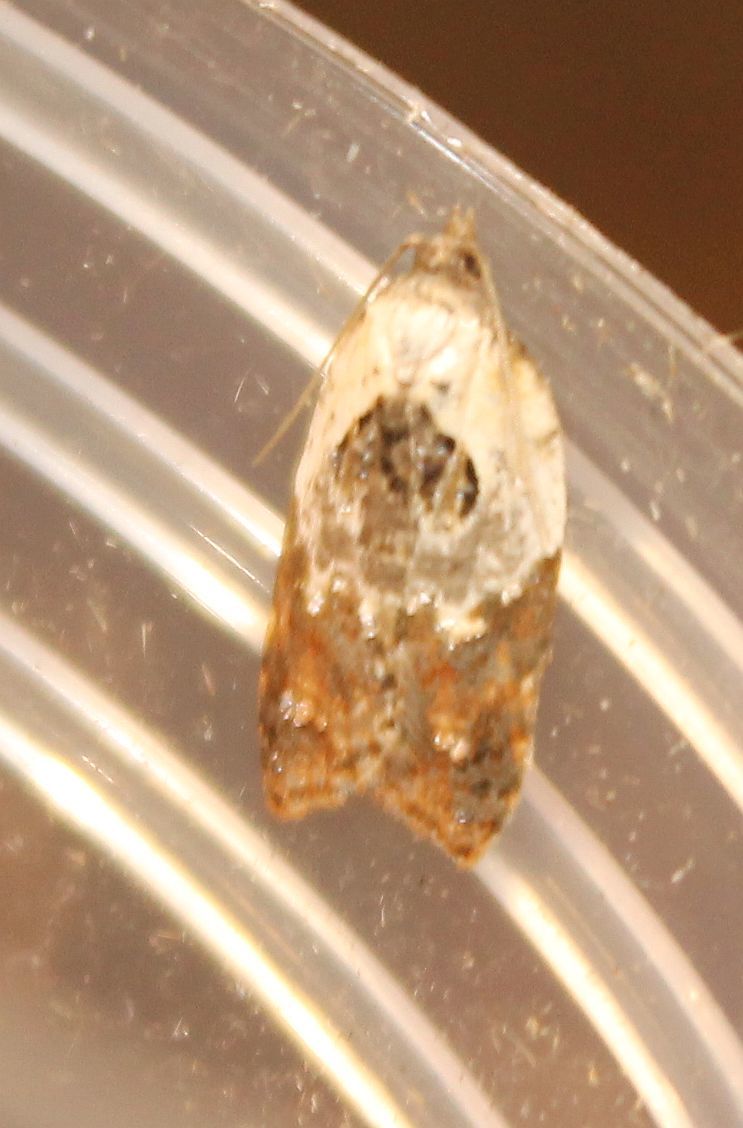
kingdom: Animalia
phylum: Arthropoda
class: Insecta
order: Lepidoptera
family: Tortricidae
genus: Acleris
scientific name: Acleris variegana
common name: Garden rose tortrix
